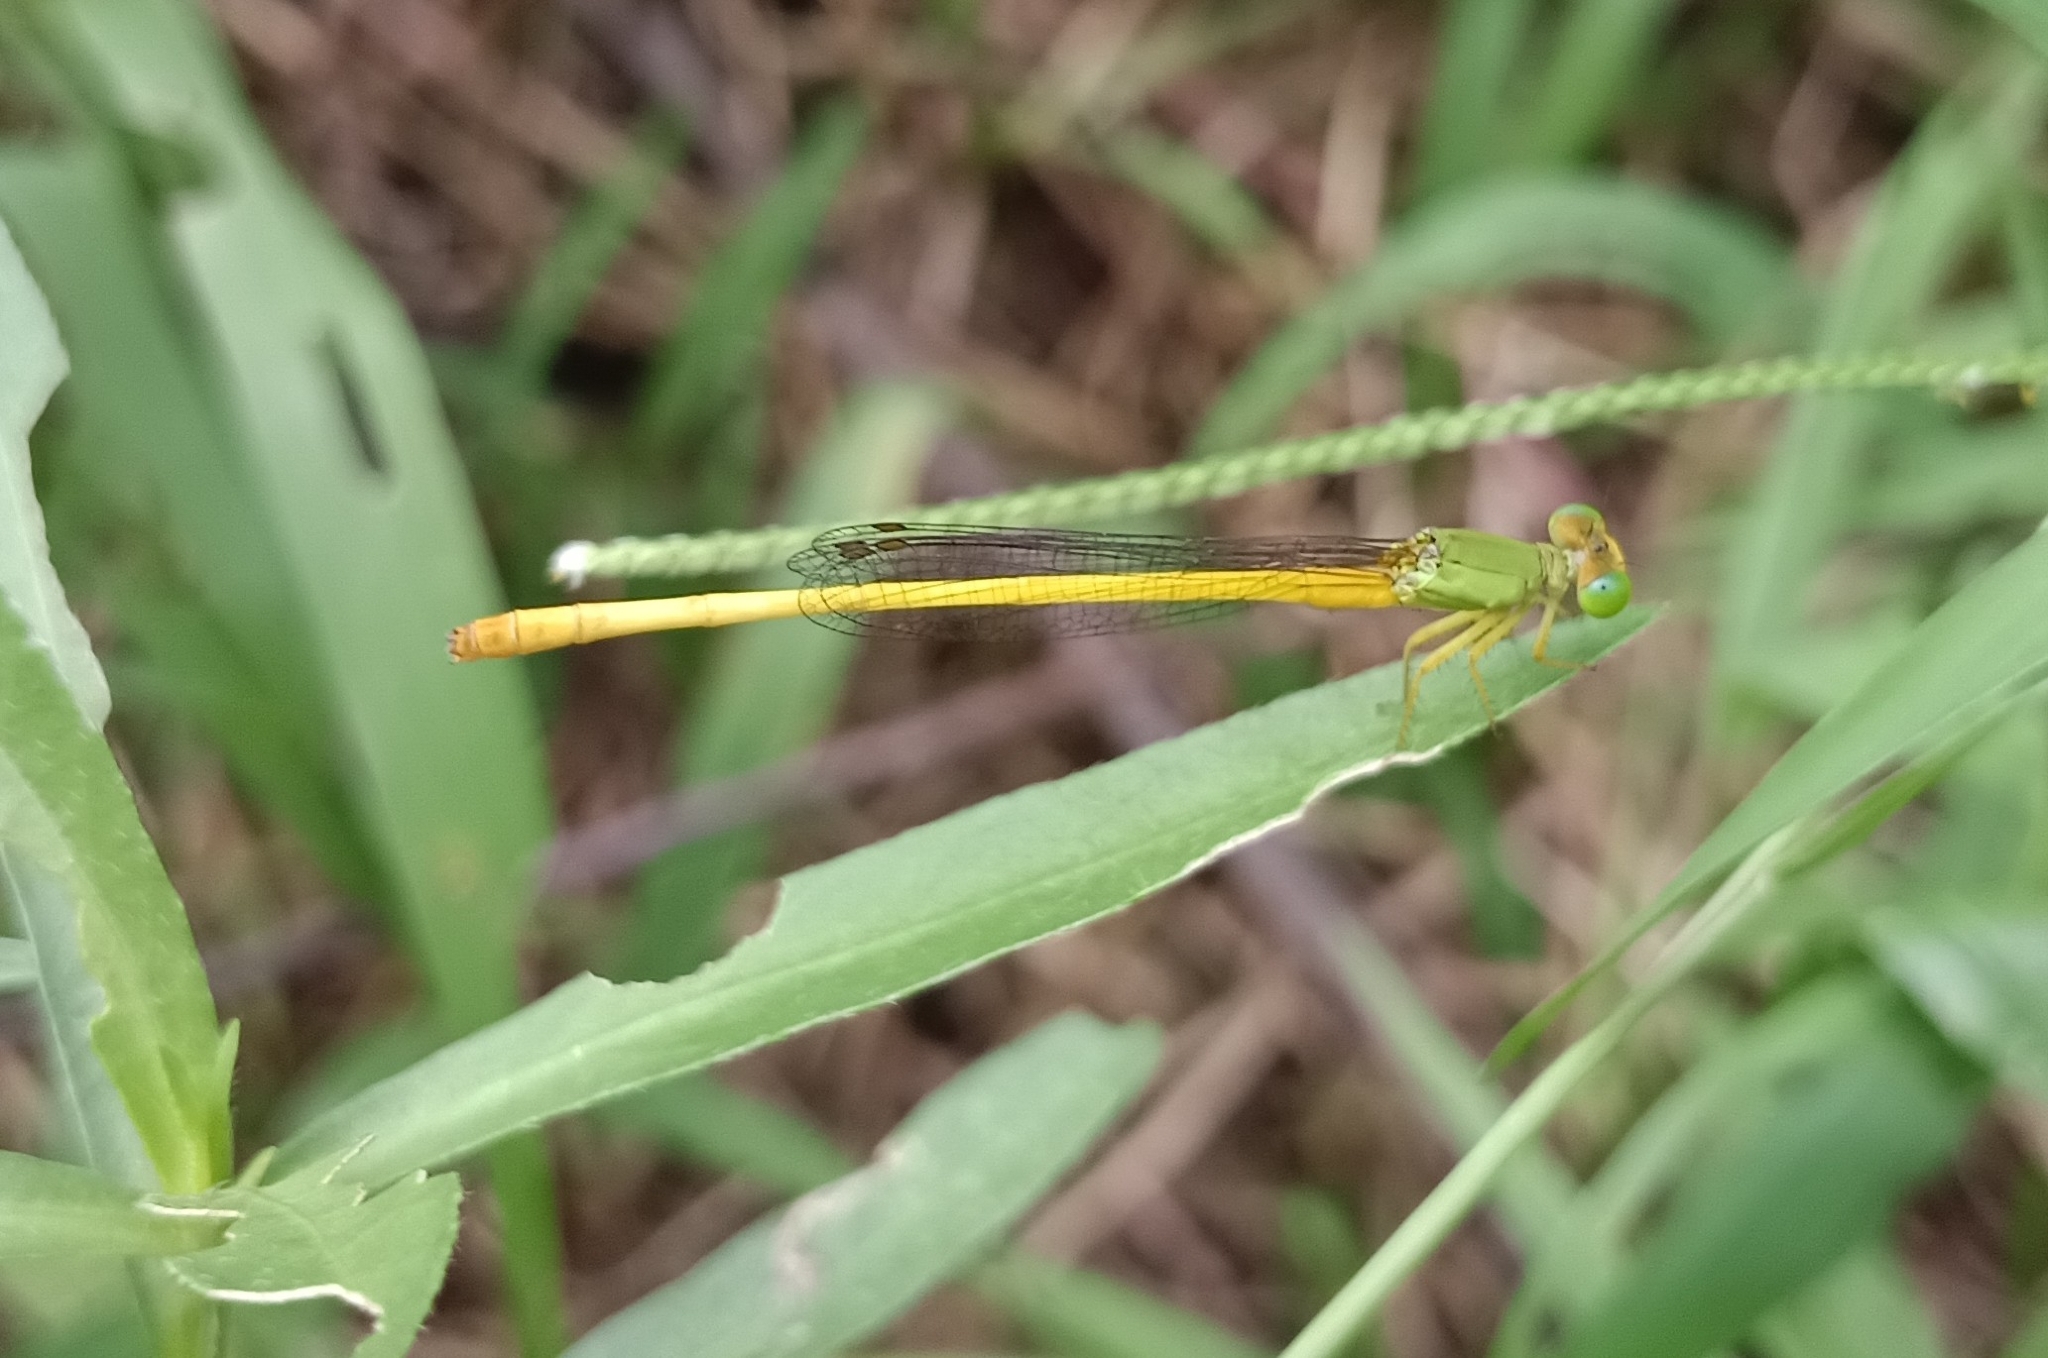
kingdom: Animalia
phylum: Arthropoda
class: Insecta
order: Odonata
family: Coenagrionidae
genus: Ceriagrion
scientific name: Ceriagrion coromandelianum
